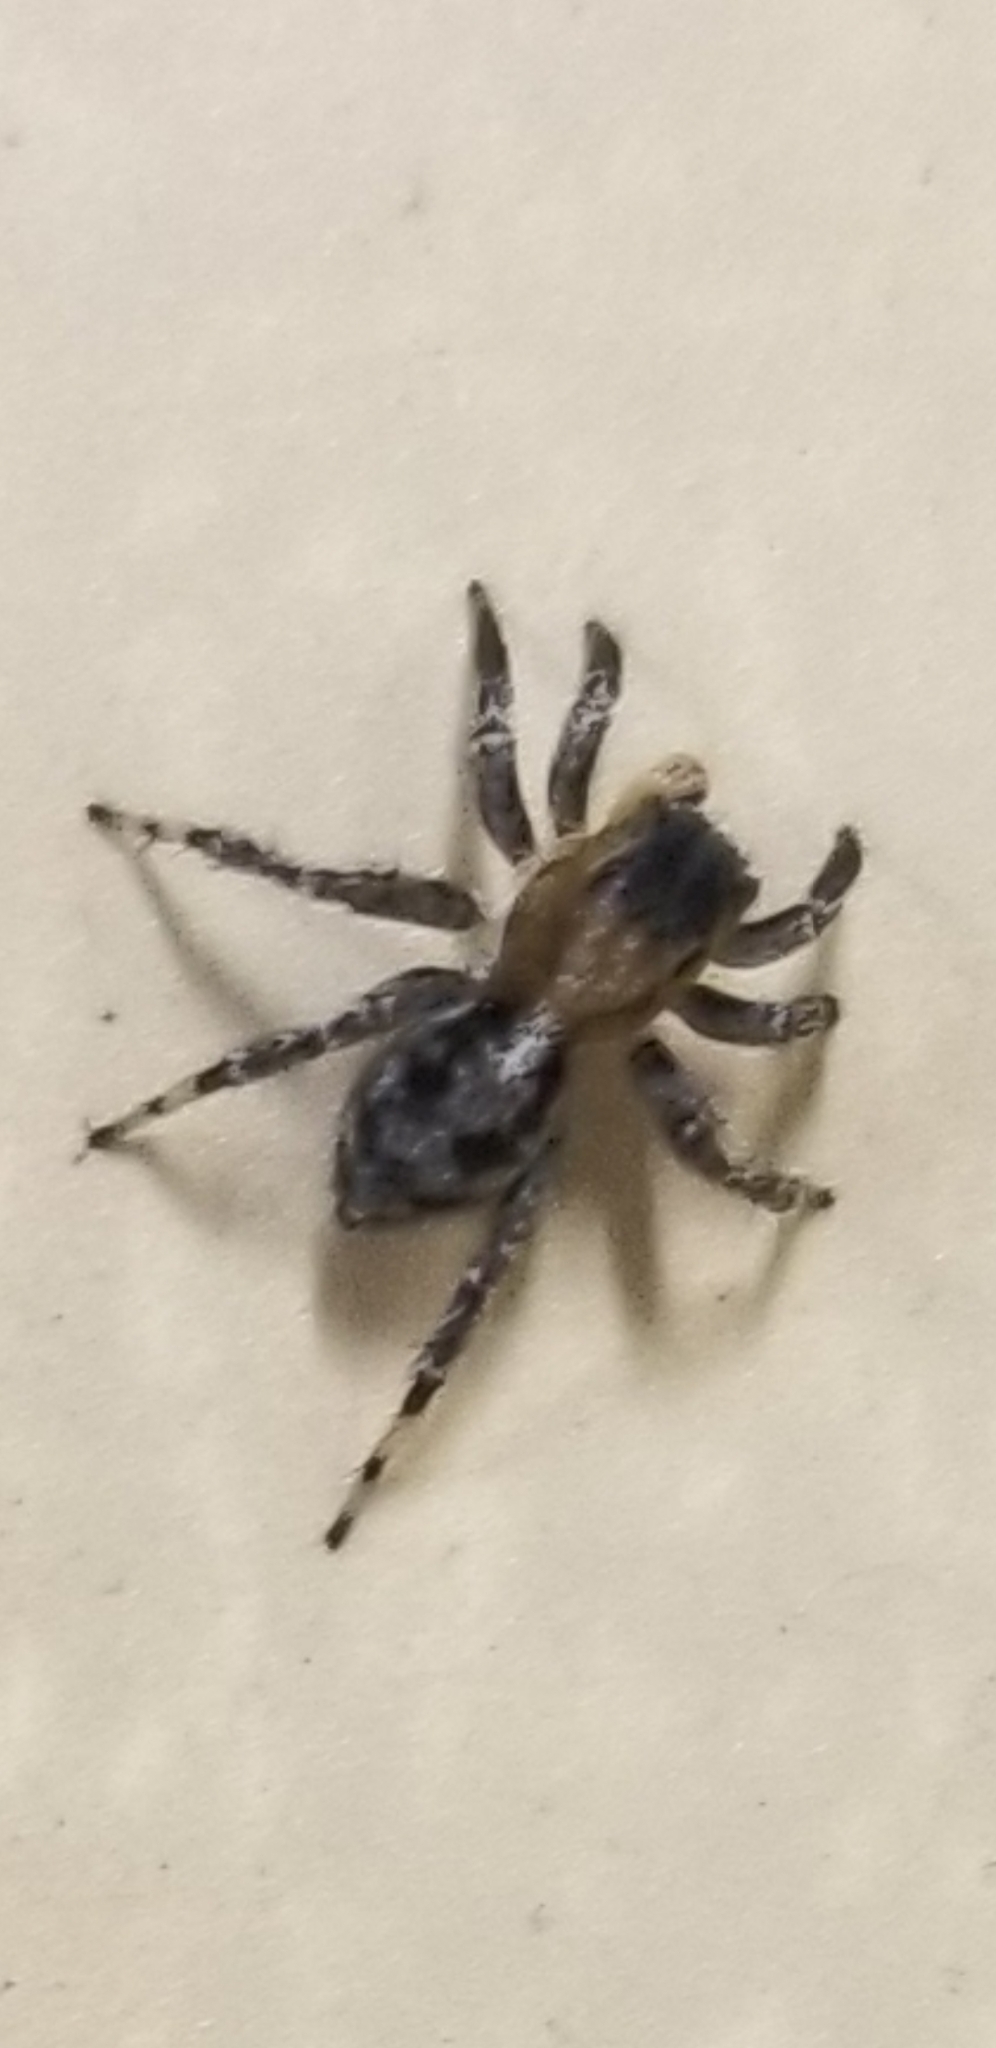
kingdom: Animalia
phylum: Arthropoda
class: Arachnida
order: Araneae
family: Salticidae
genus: Naphrys
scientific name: Naphrys pulex
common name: Flea jumping spider
